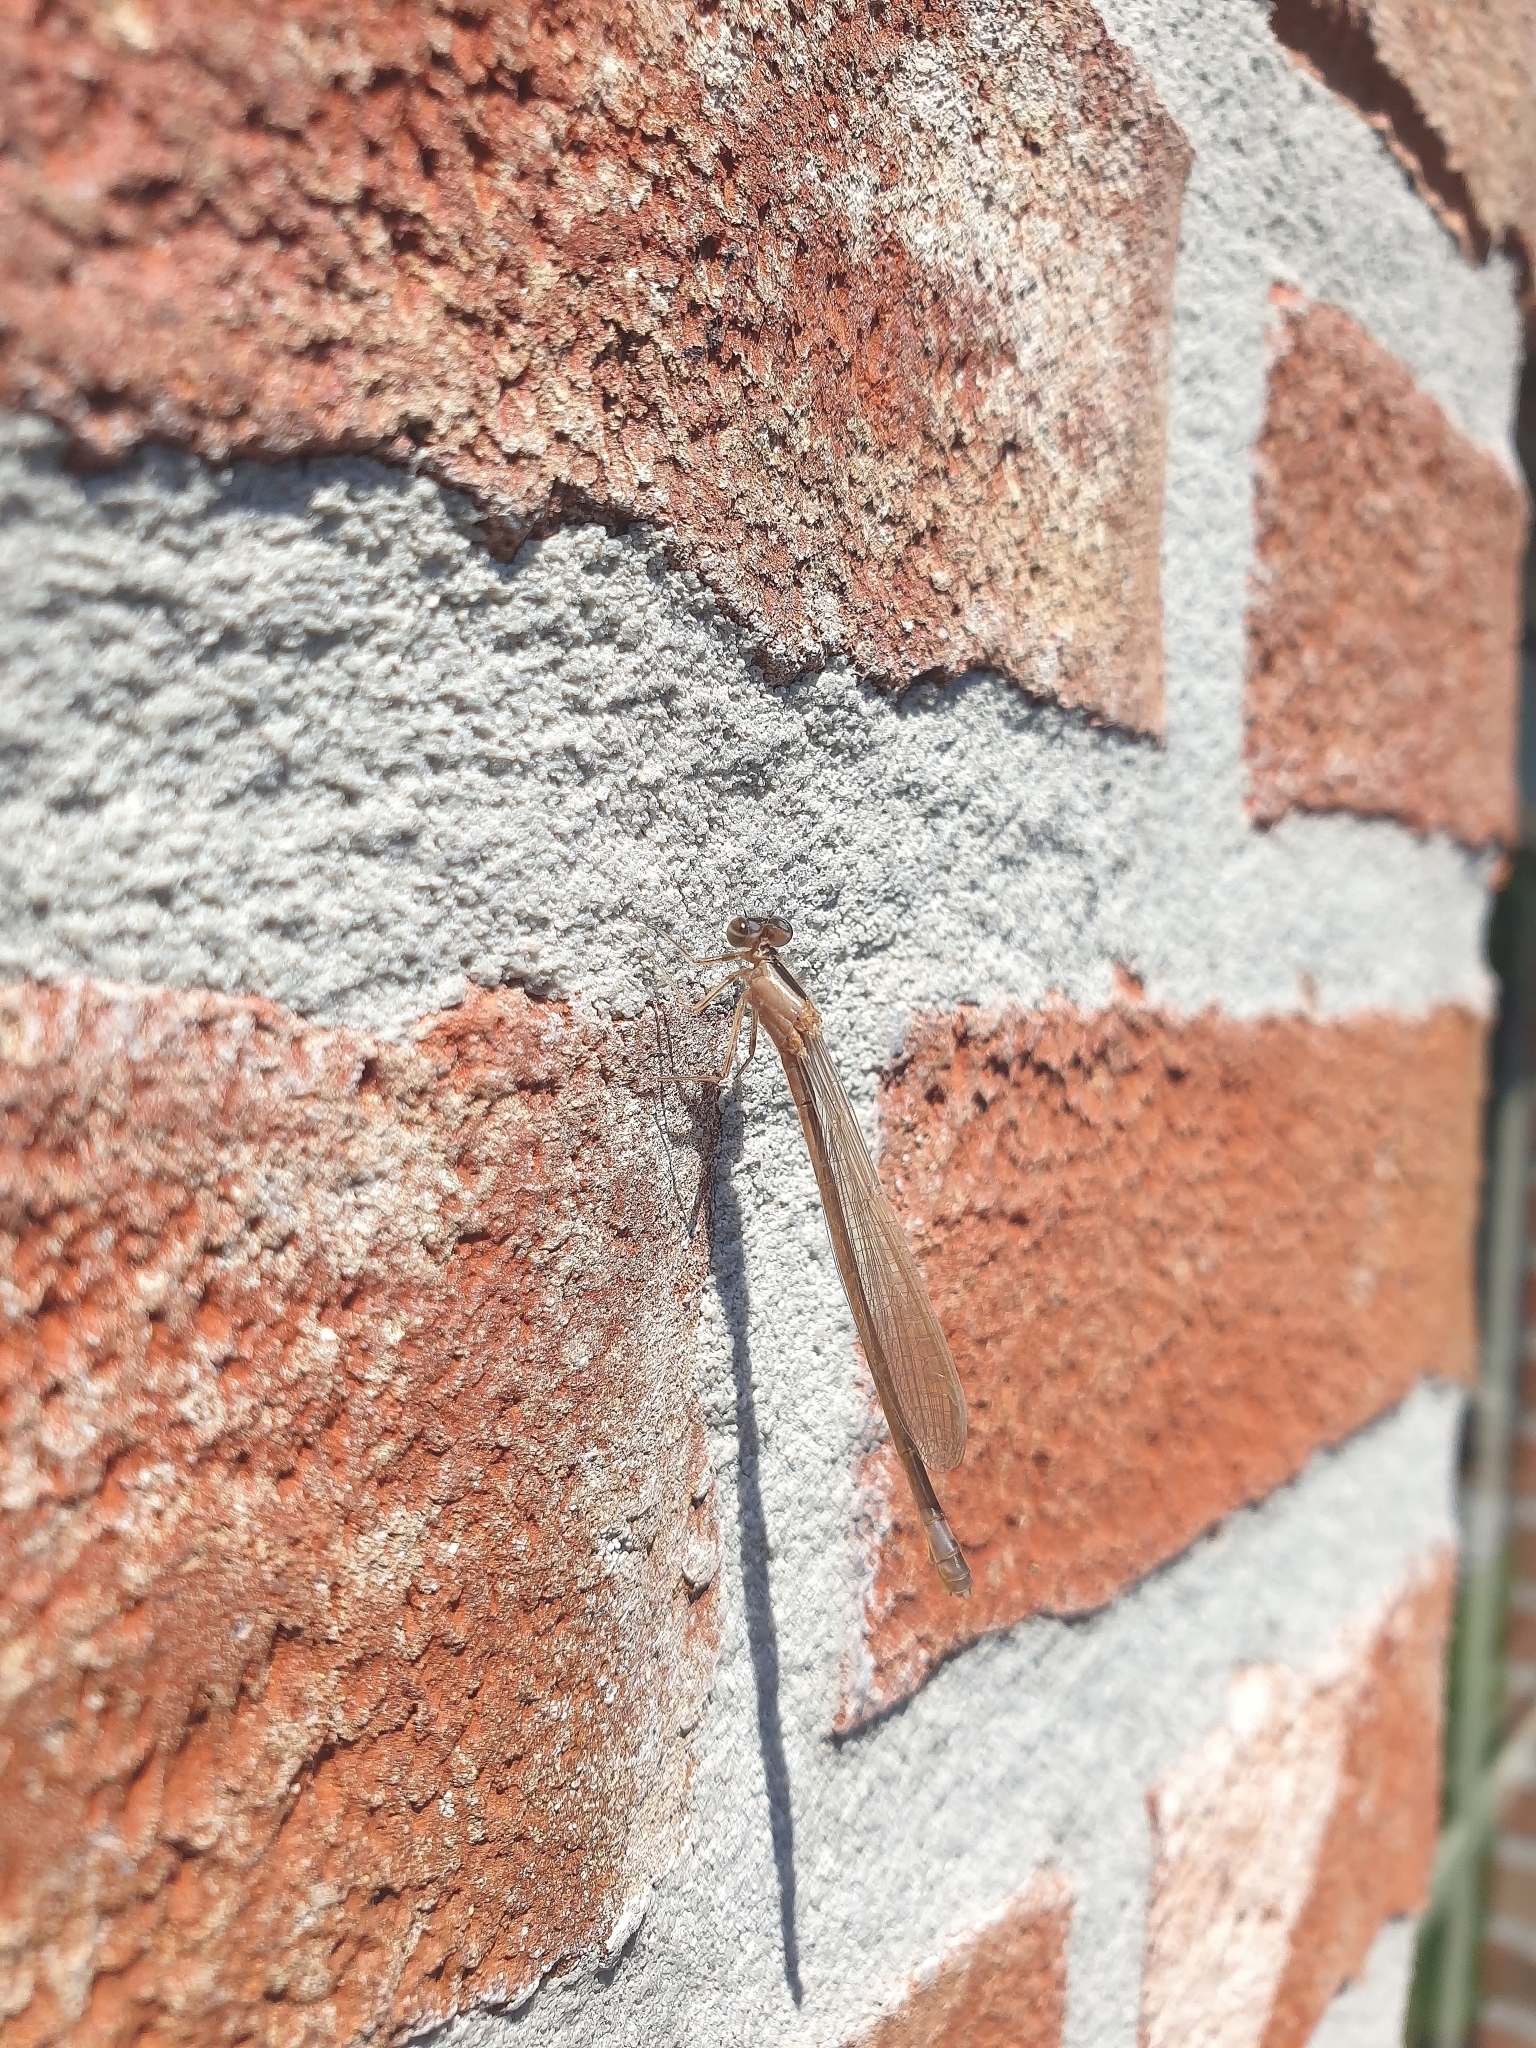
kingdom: Animalia
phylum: Arthropoda
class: Insecta
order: Odonata
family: Coenagrionidae
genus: Ischnura
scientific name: Ischnura elegans
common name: Blue-tailed damselfly
